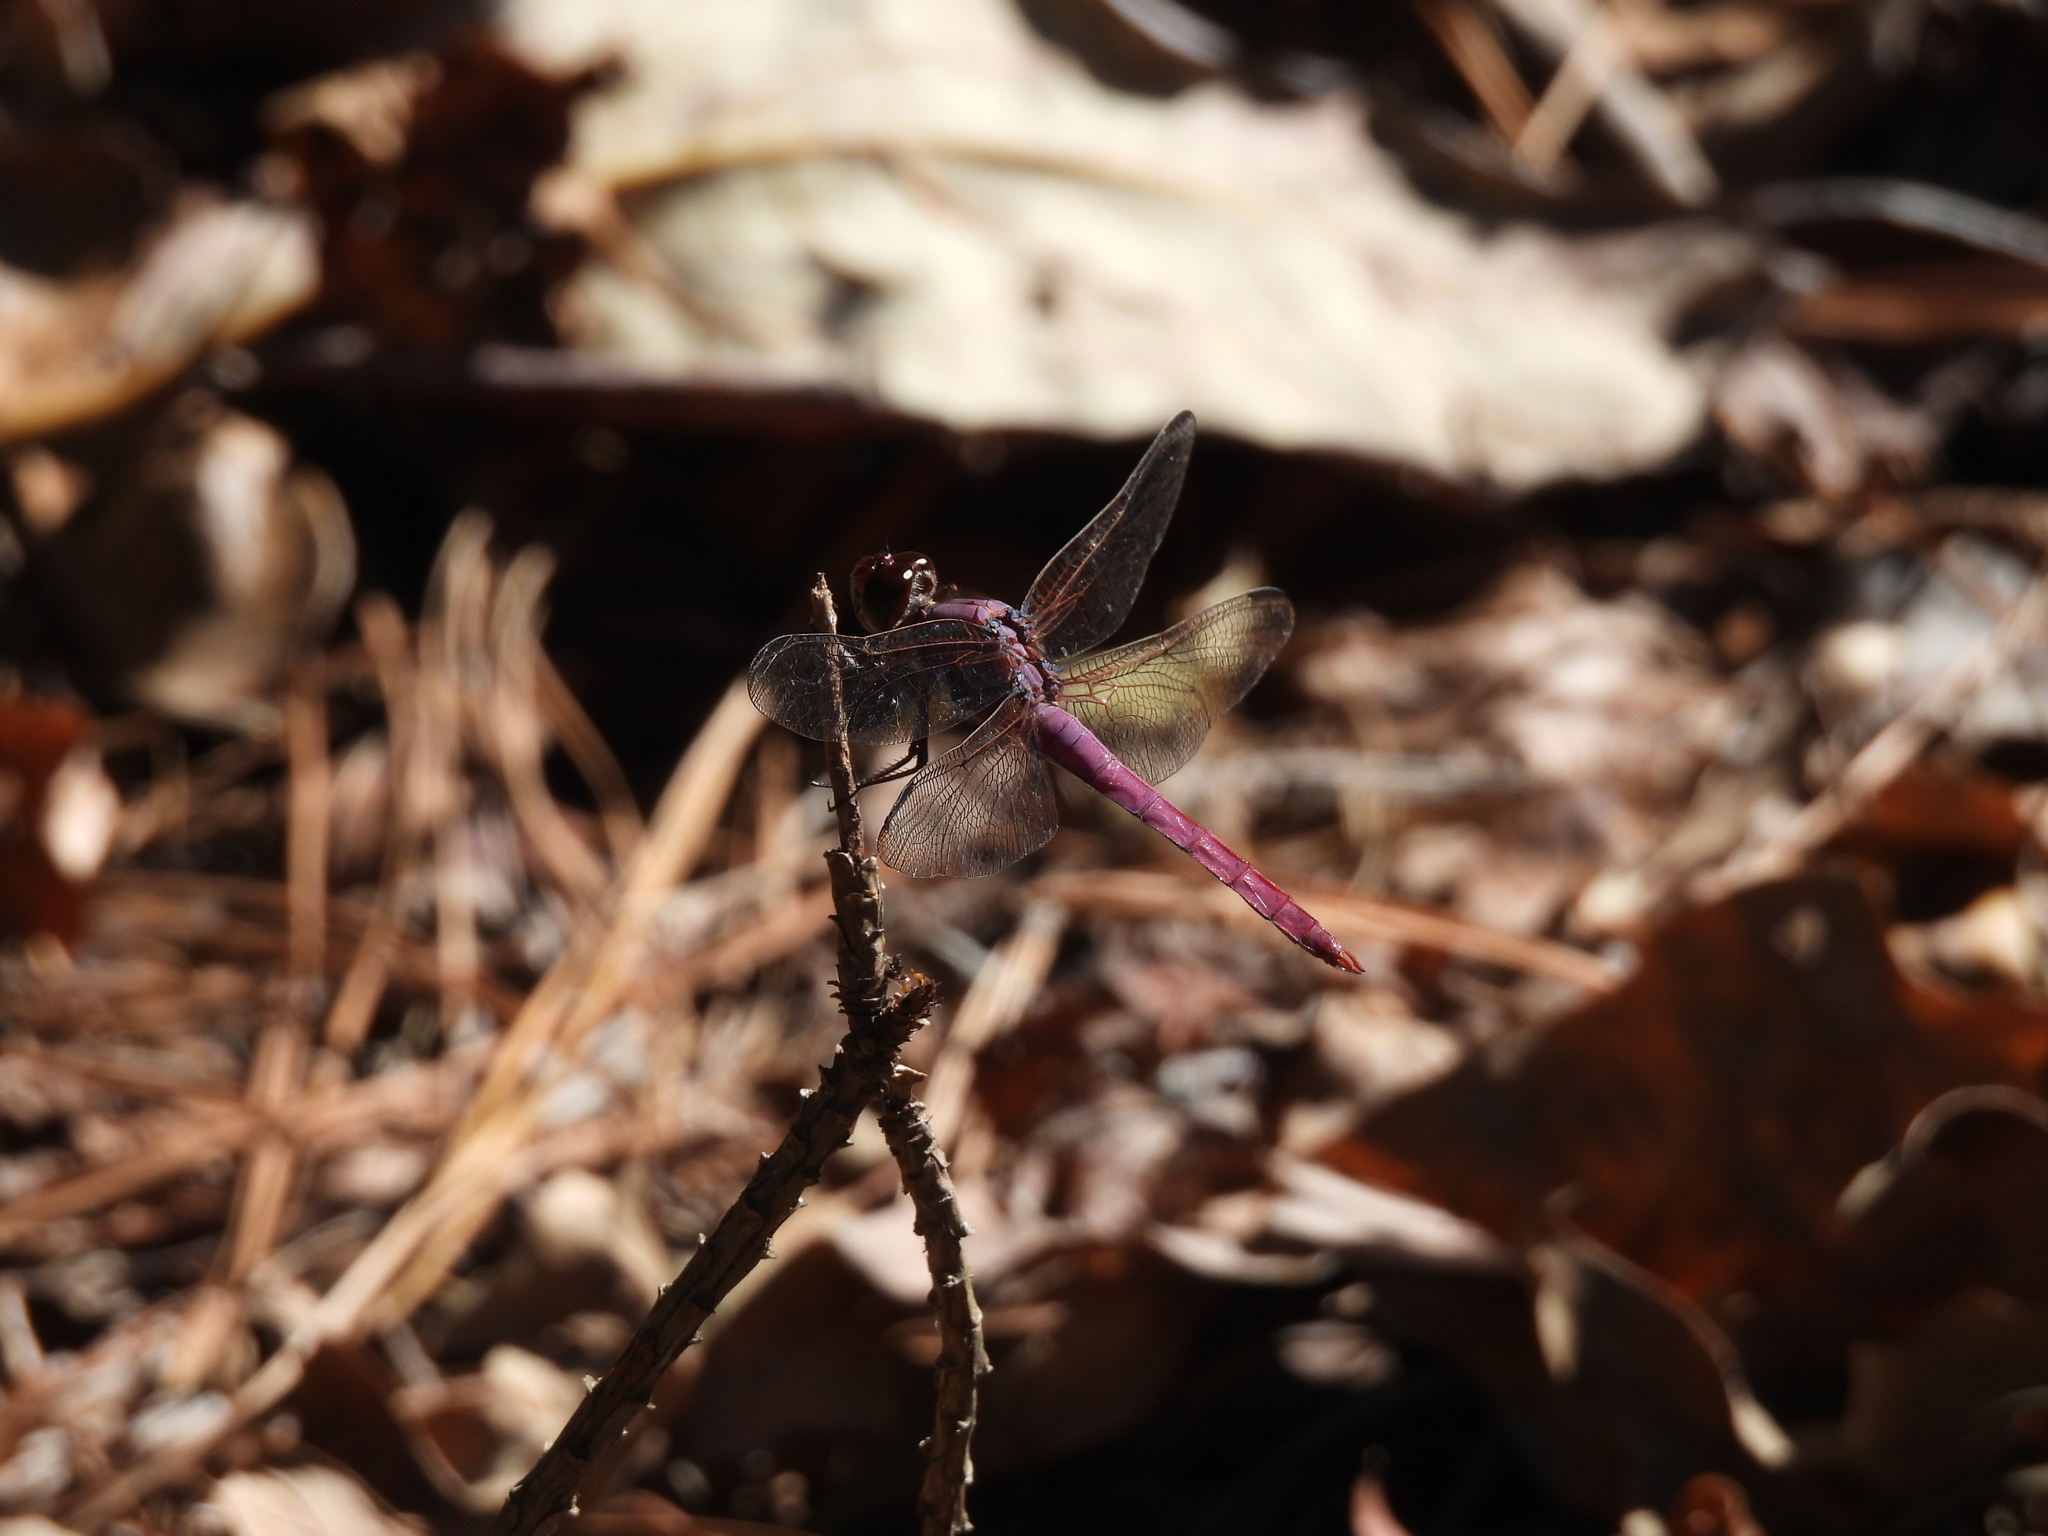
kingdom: Animalia
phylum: Arthropoda
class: Insecta
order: Odonata
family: Libellulidae
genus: Orthemis
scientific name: Orthemis ferruginea
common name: Roseate skimmer
